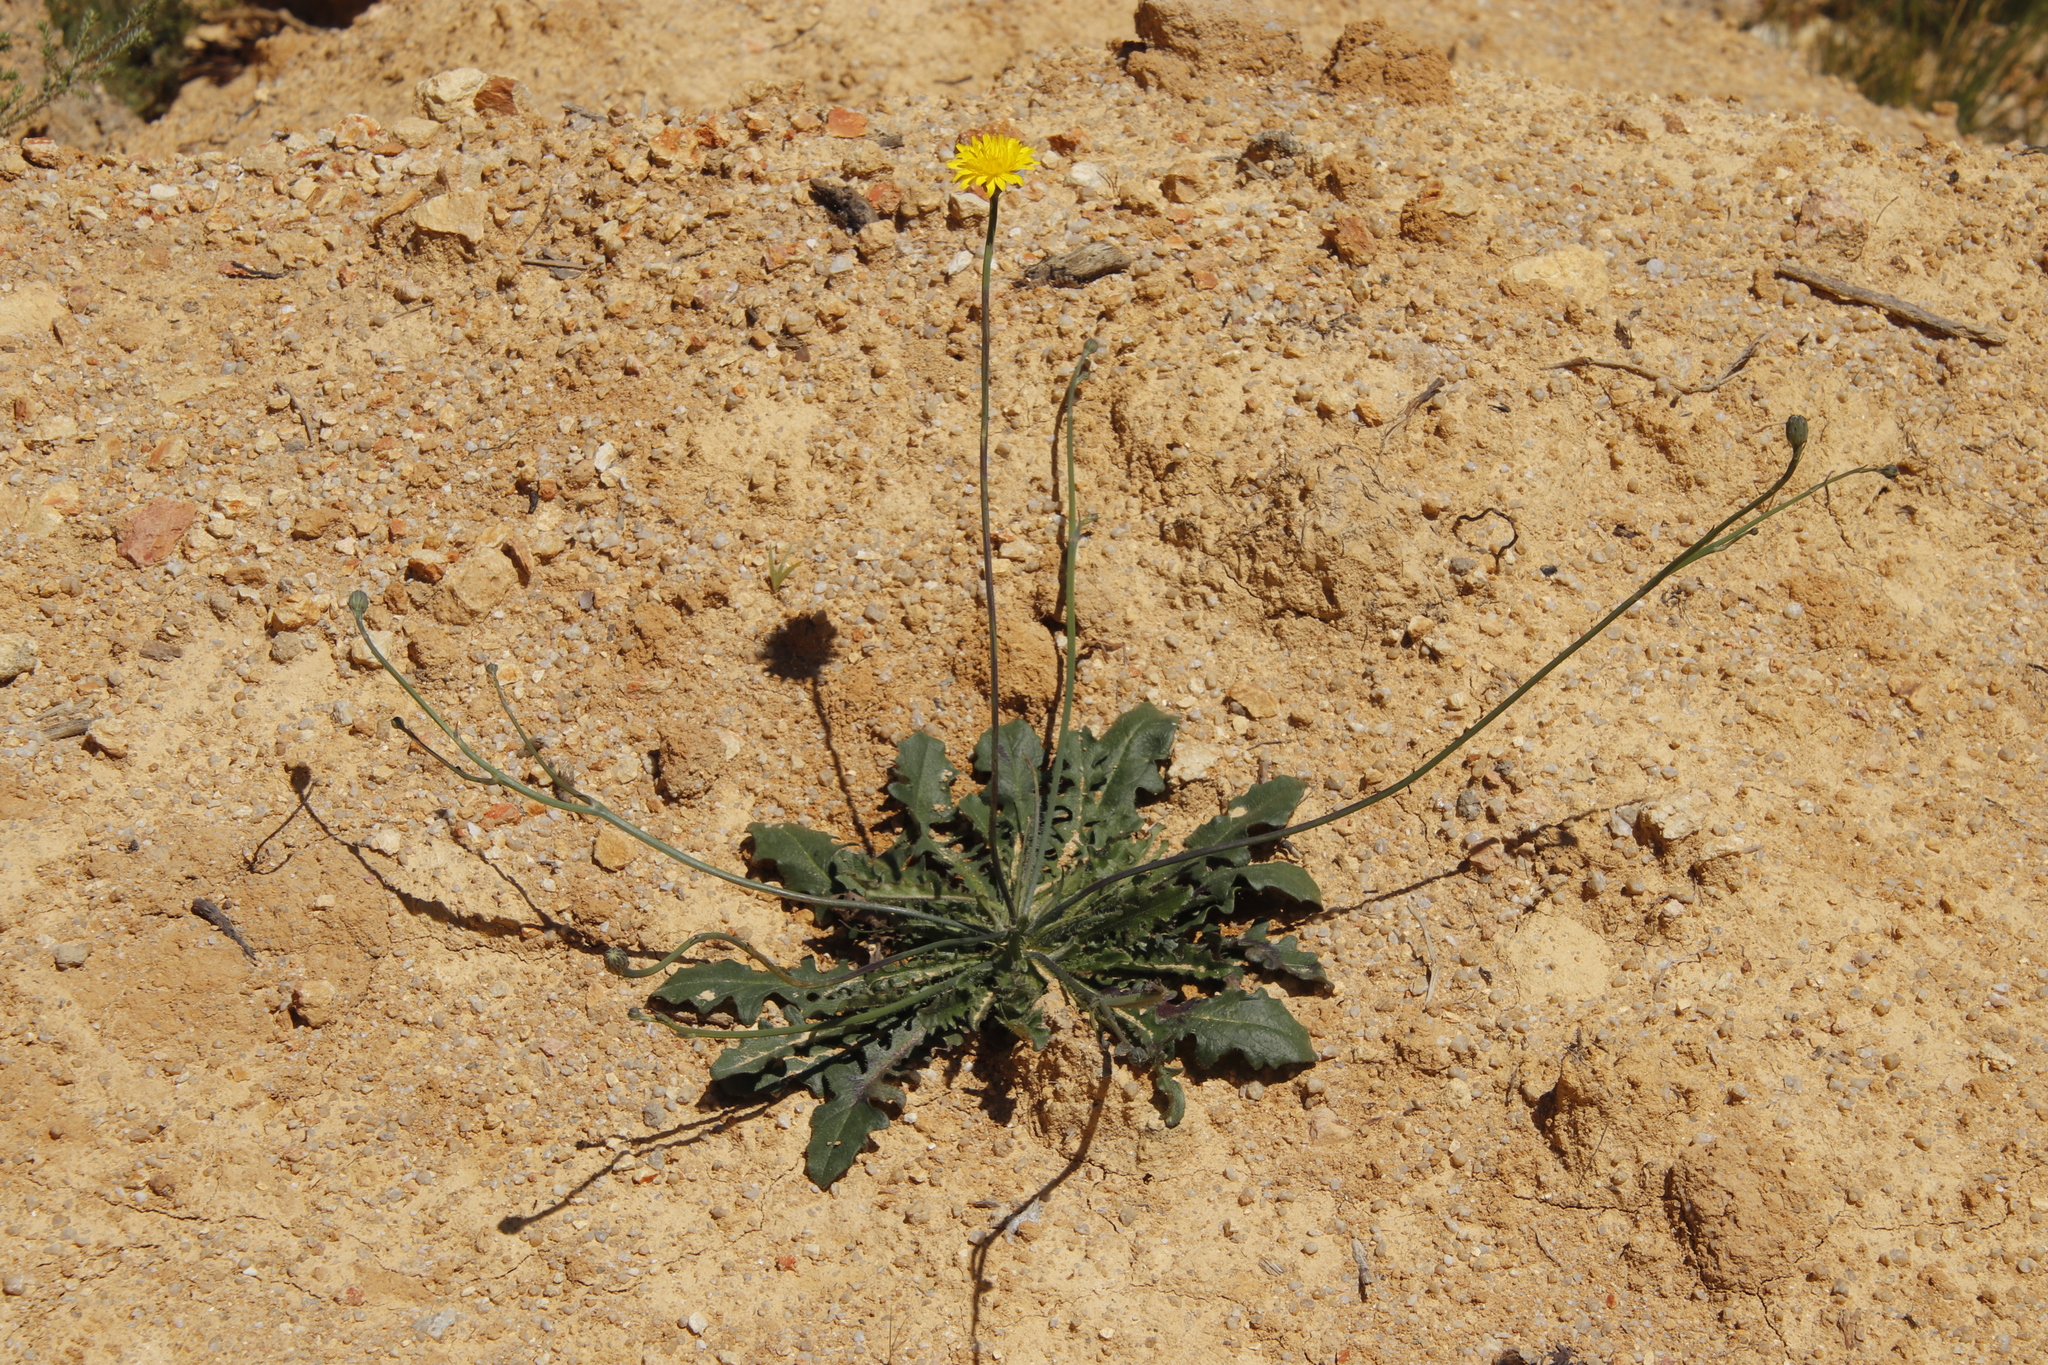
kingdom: Plantae
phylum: Tracheophyta
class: Magnoliopsida
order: Asterales
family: Asteraceae
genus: Hypochaeris
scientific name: Hypochaeris radicata
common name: Flatweed
